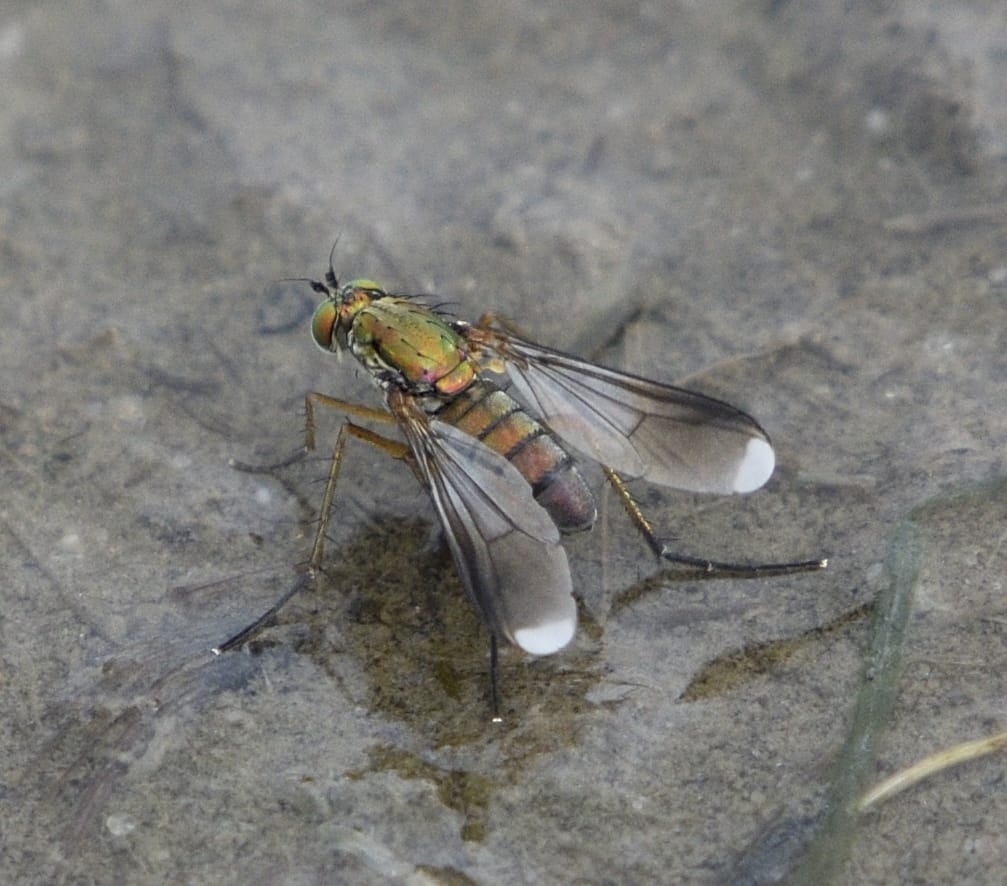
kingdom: Animalia
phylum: Arthropoda
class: Insecta
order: Diptera
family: Dolichopodidae
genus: Poecilobothrus
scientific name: Poecilobothrus nobilitatus
